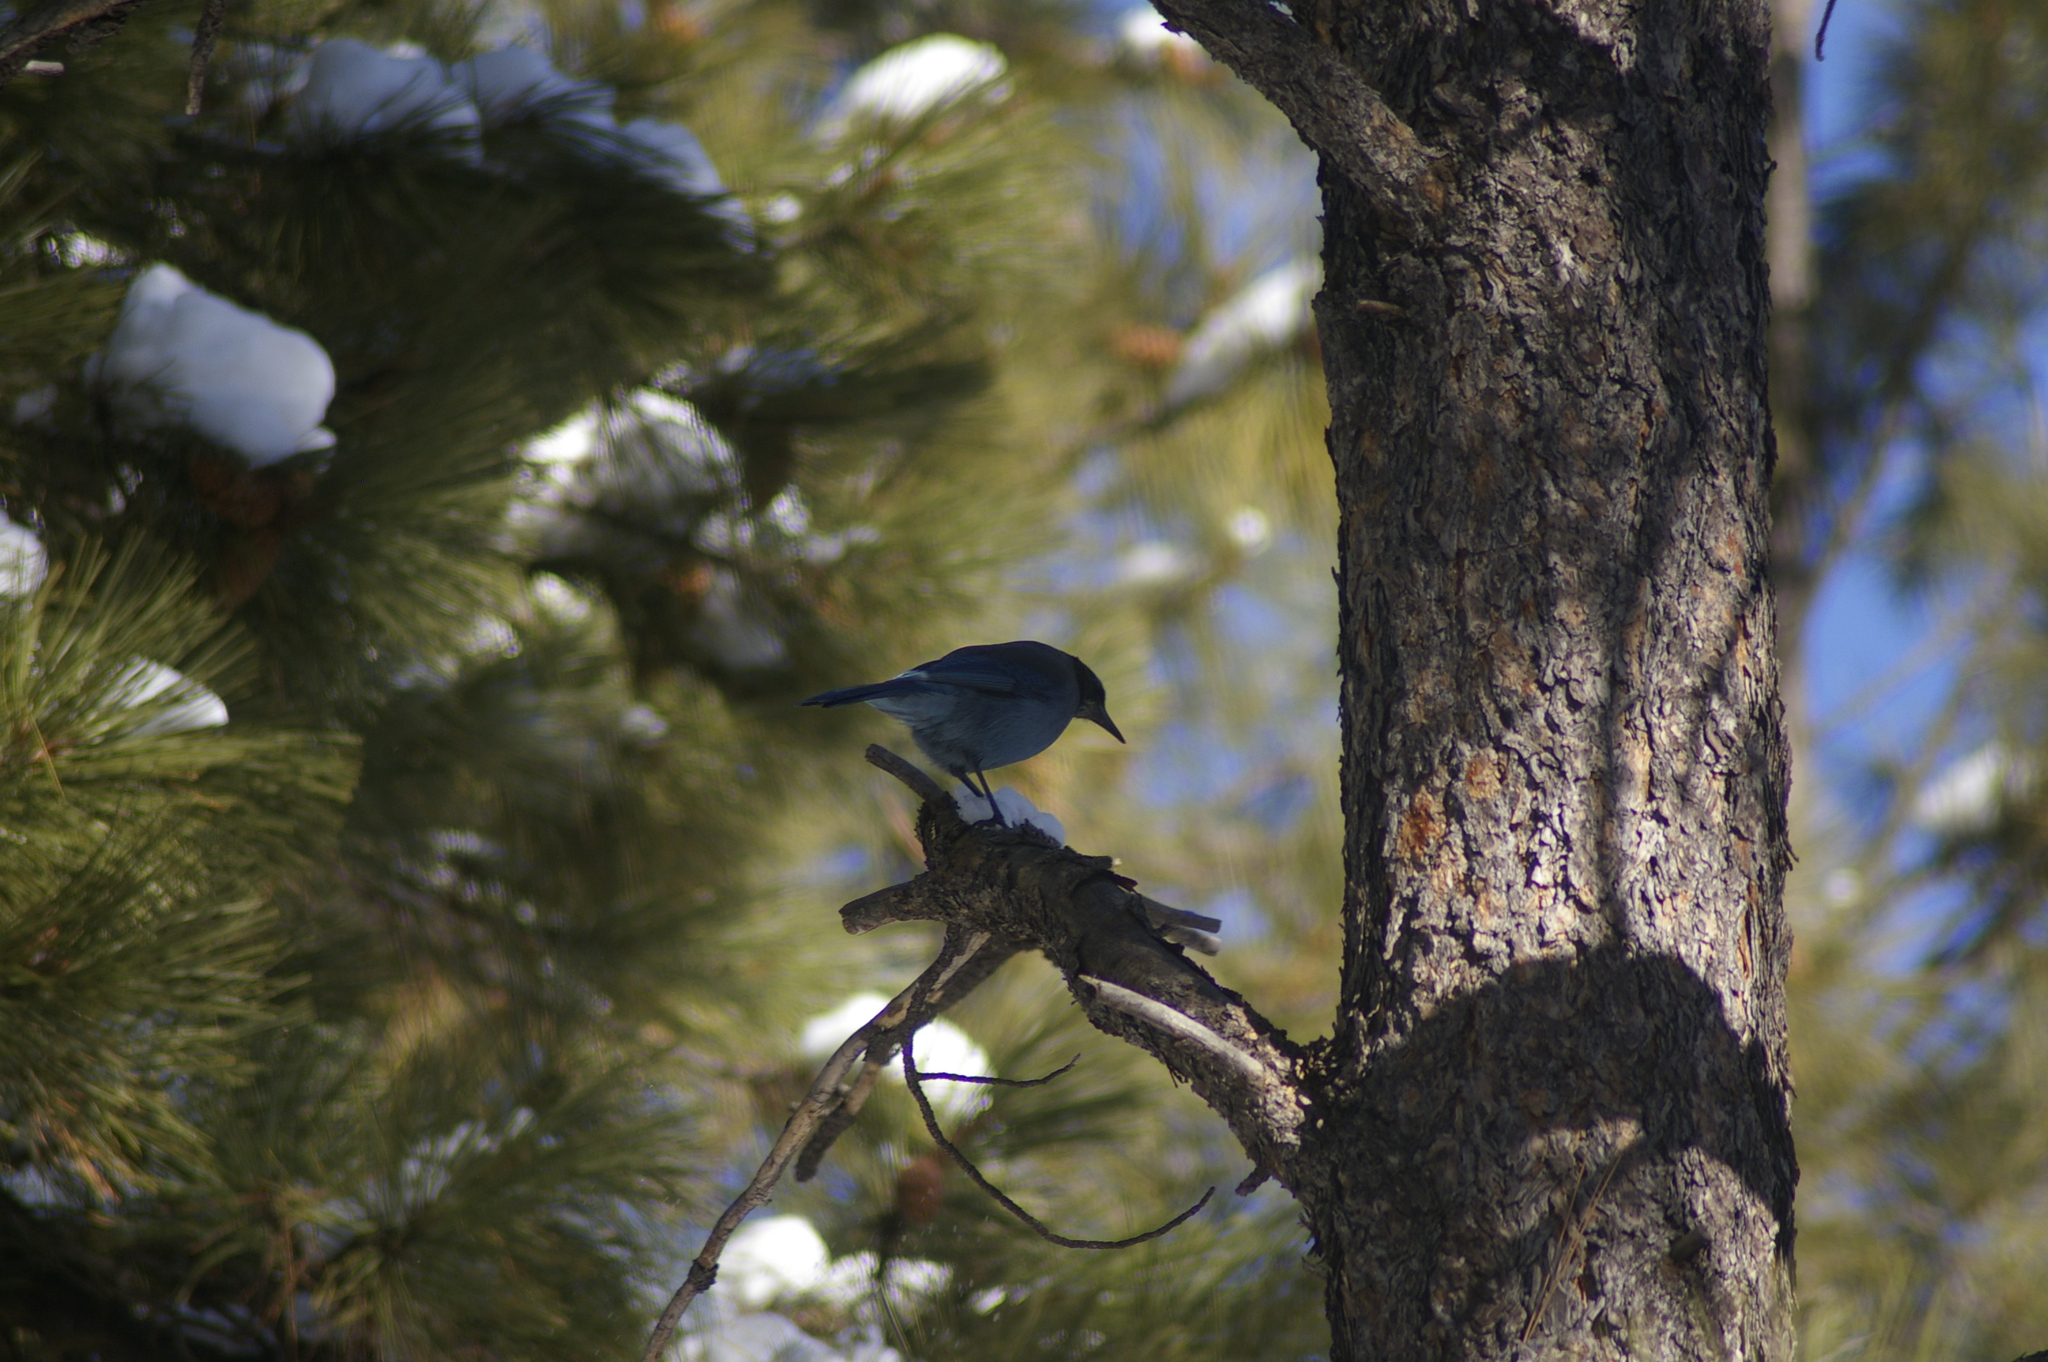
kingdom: Animalia
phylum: Chordata
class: Aves
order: Passeriformes
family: Corvidae
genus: Cyanocitta
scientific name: Cyanocitta stelleri
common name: Steller's jay
